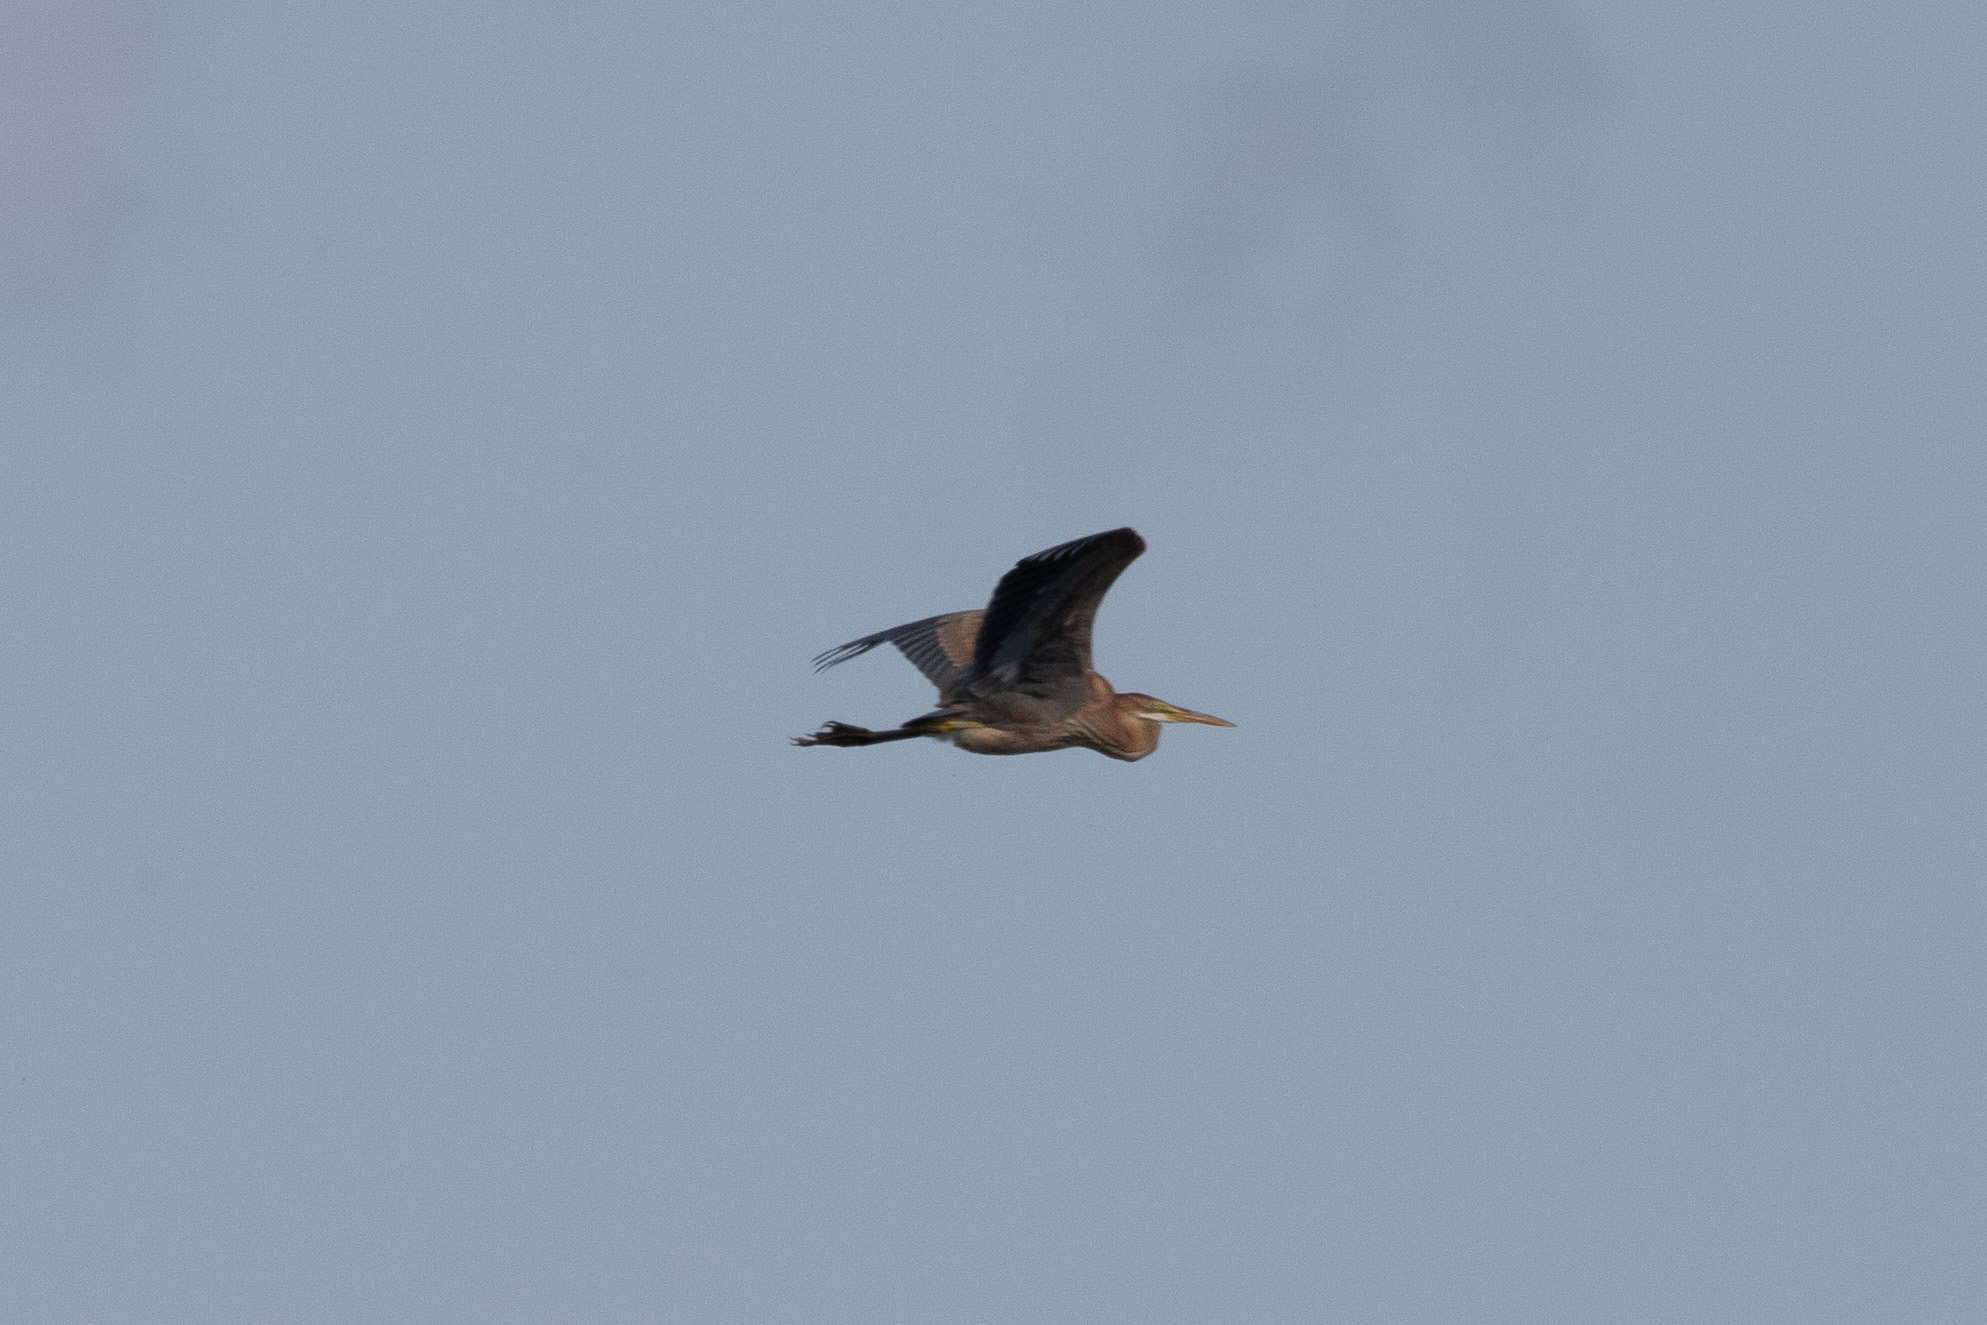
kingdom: Animalia
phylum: Chordata
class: Aves
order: Pelecaniformes
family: Ardeidae
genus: Ardea
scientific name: Ardea purpurea
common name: Purple heron
